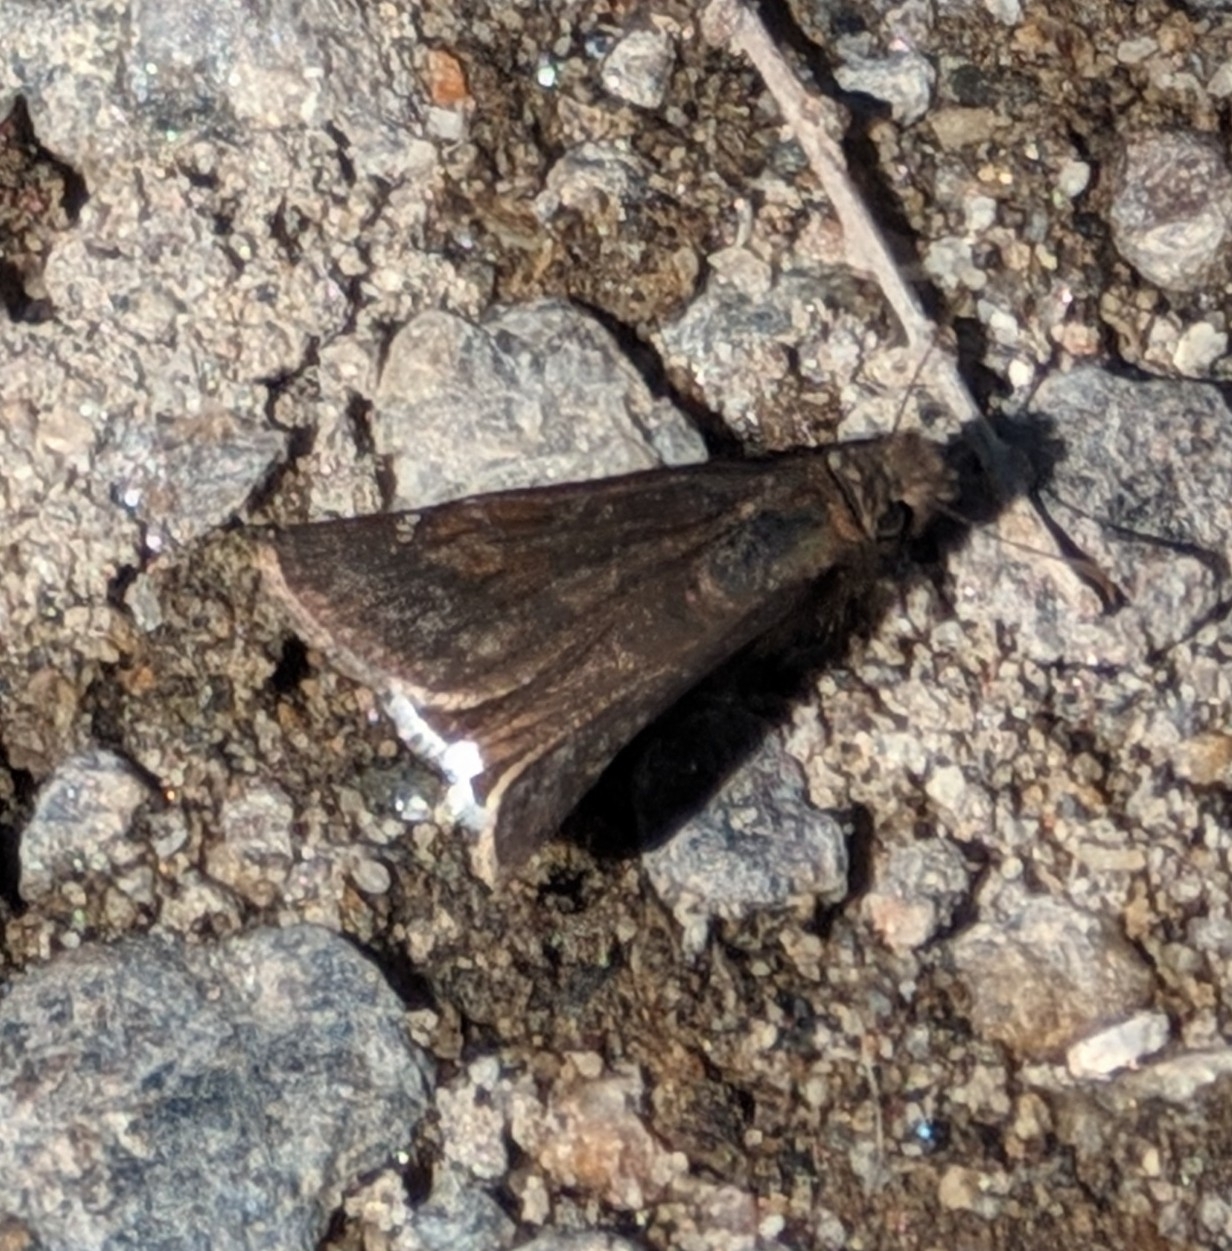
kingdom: Animalia
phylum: Arthropoda
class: Insecta
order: Lepidoptera
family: Hesperiidae
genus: Erynnis
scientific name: Erynnis funeralis
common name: Funereal duskywing
